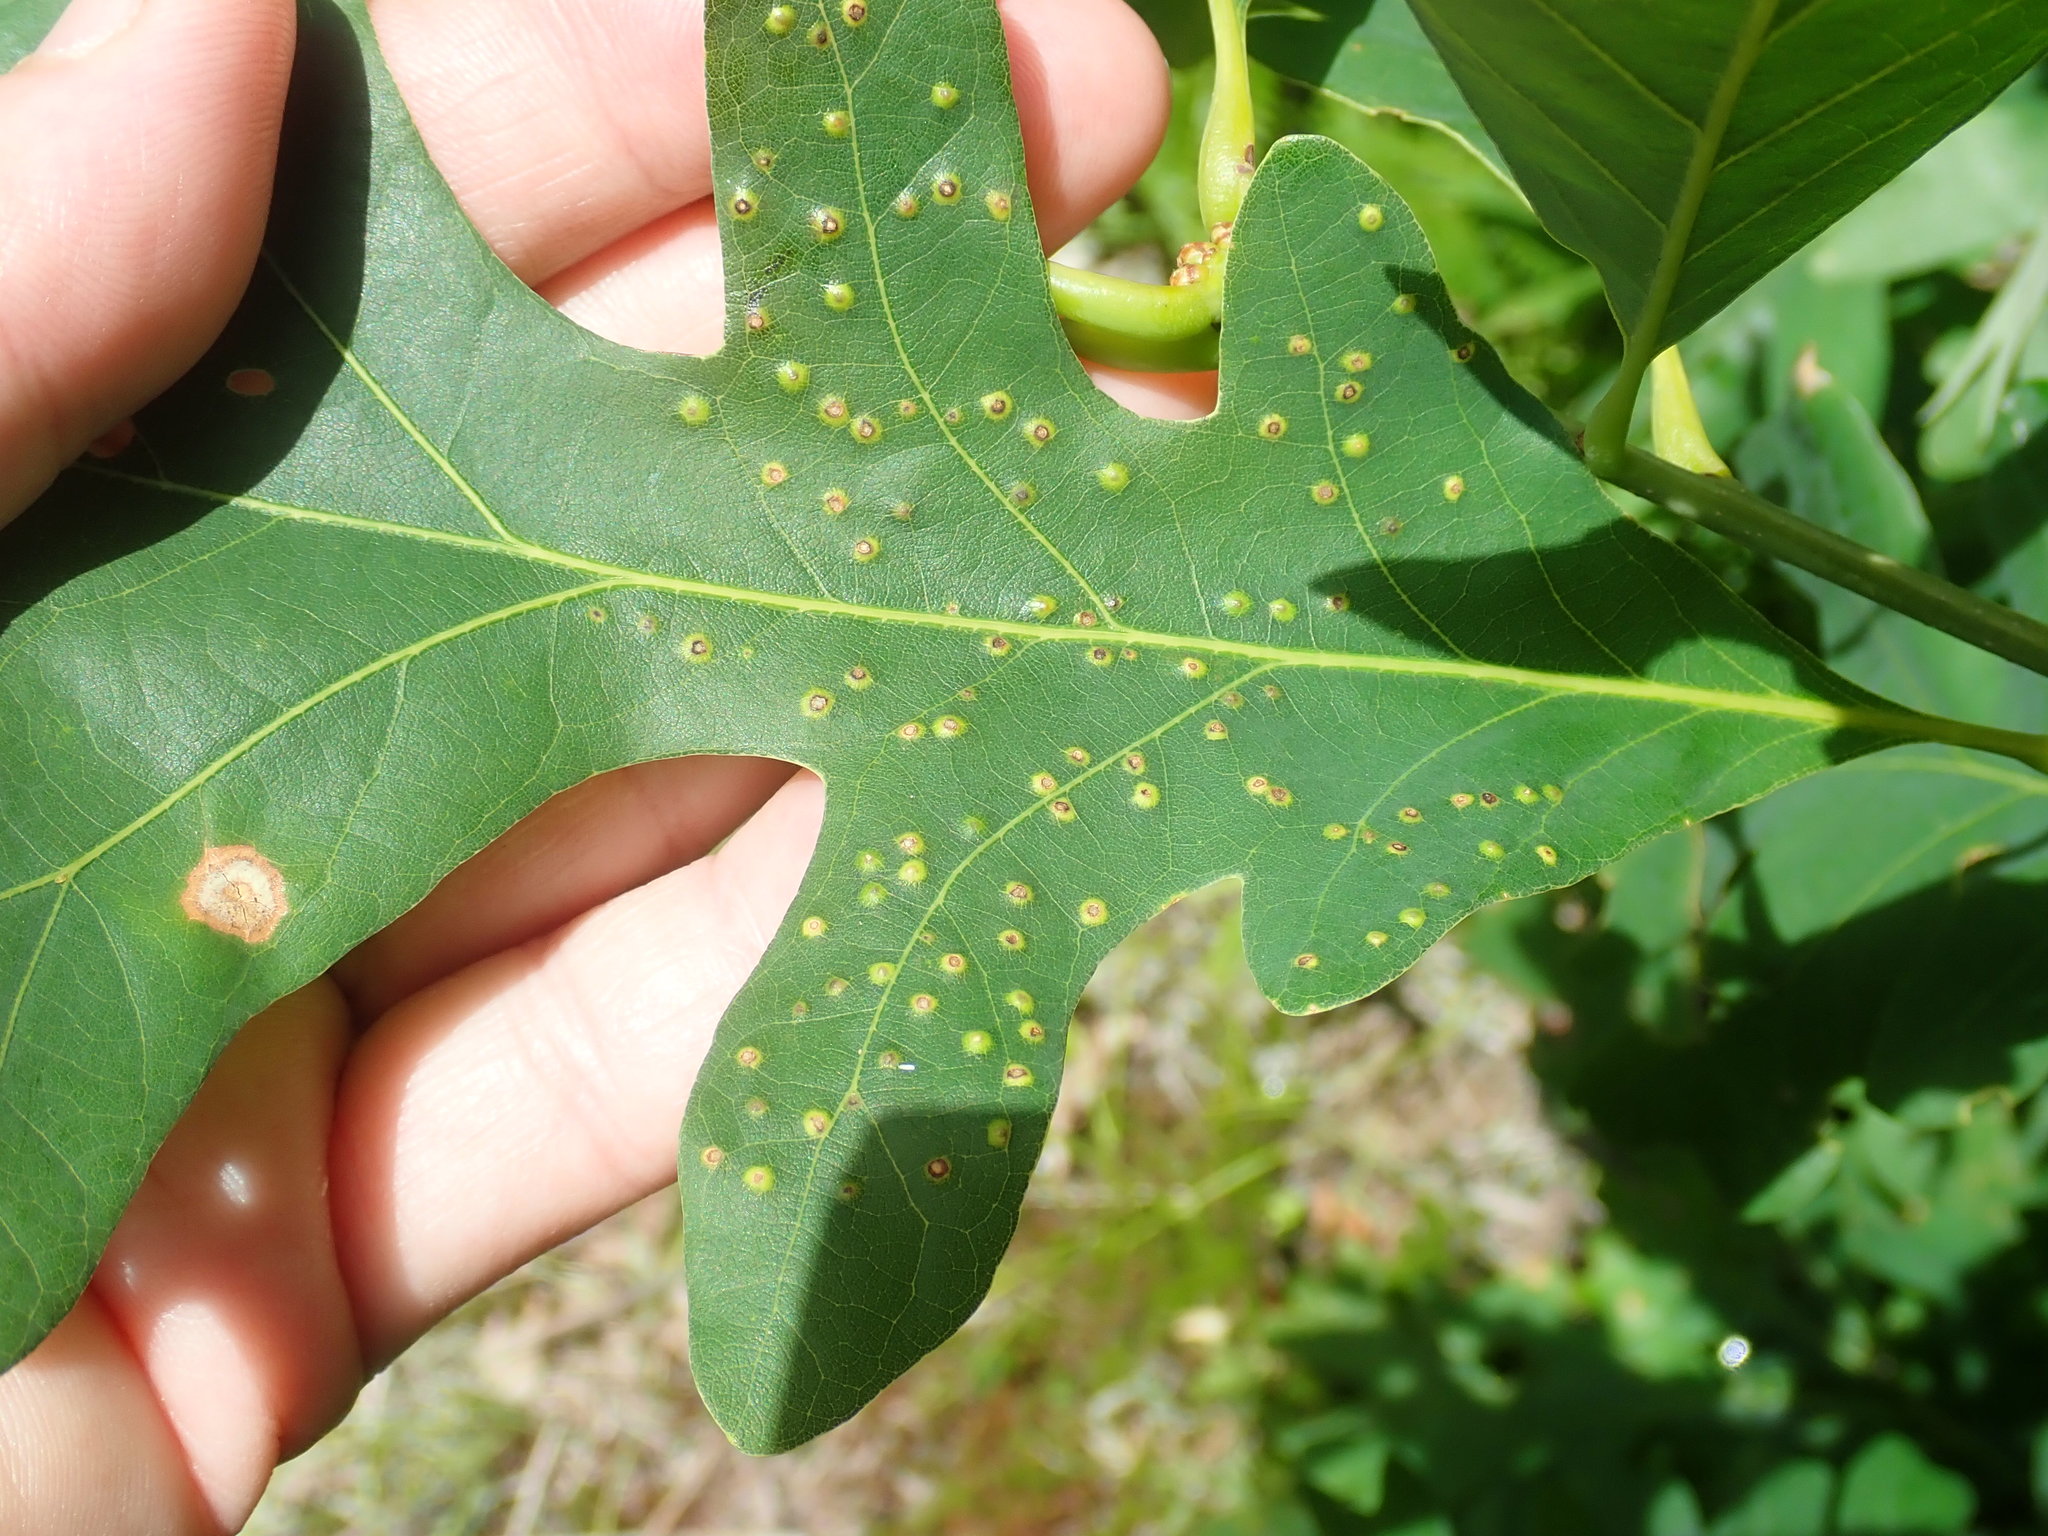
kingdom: Animalia
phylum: Arthropoda
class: Insecta
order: Hymenoptera
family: Cynipidae
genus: Neuroterus
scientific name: Neuroterus
